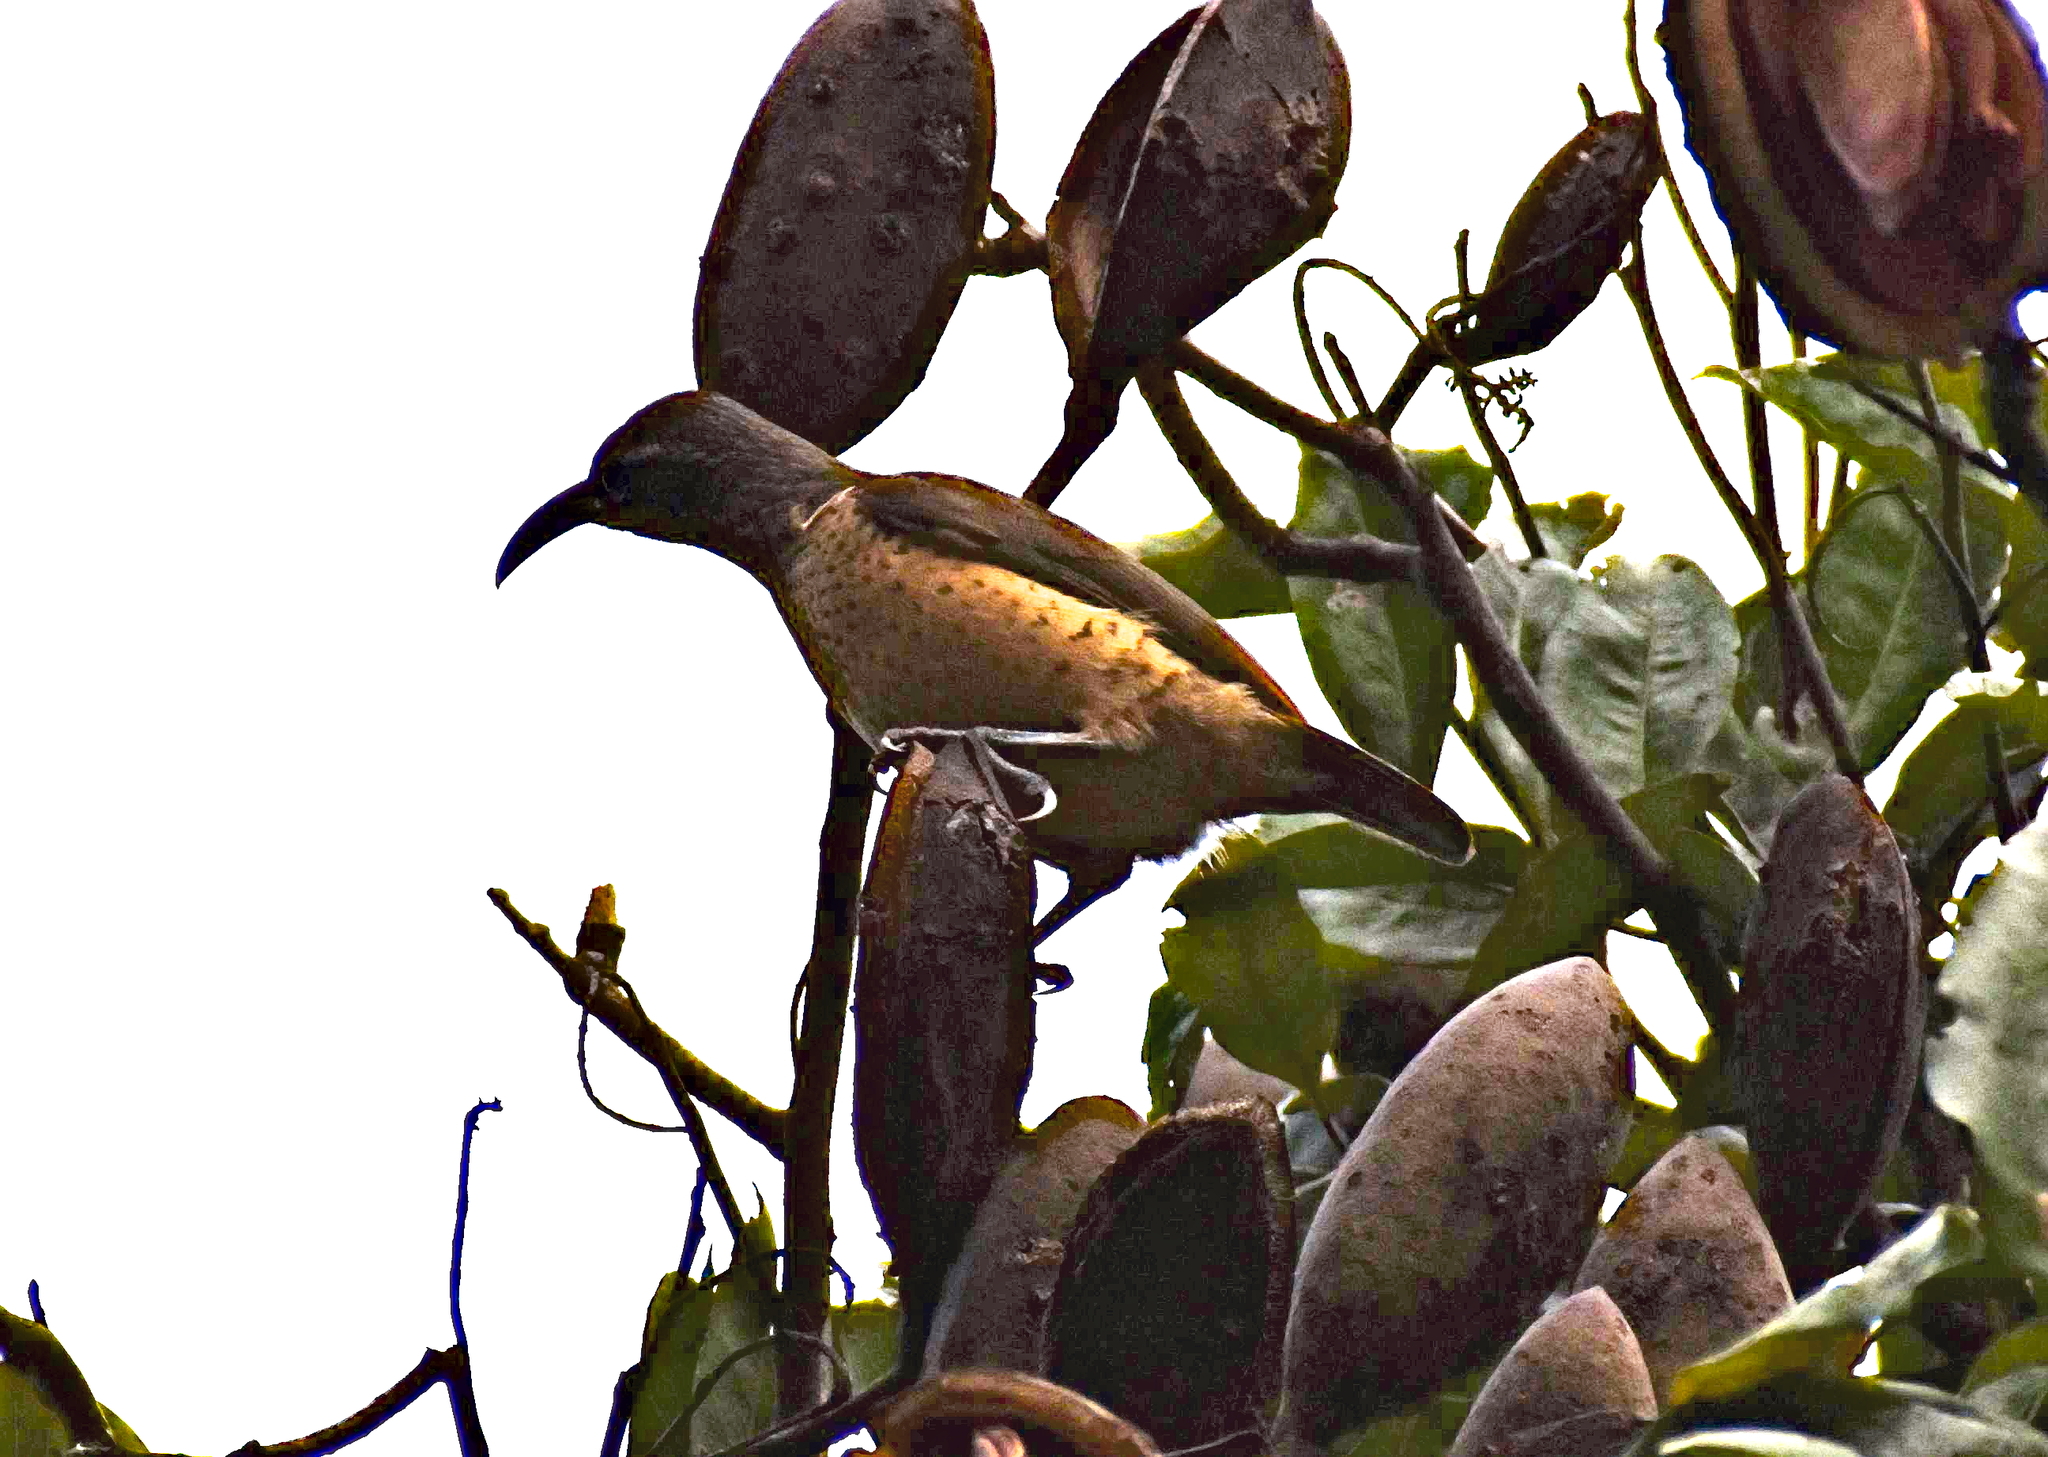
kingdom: Animalia
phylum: Chordata
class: Aves
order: Passeriformes
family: Paradisaeidae
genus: Ptiloris
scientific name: Ptiloris victoriae
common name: Victoria's riflebird
